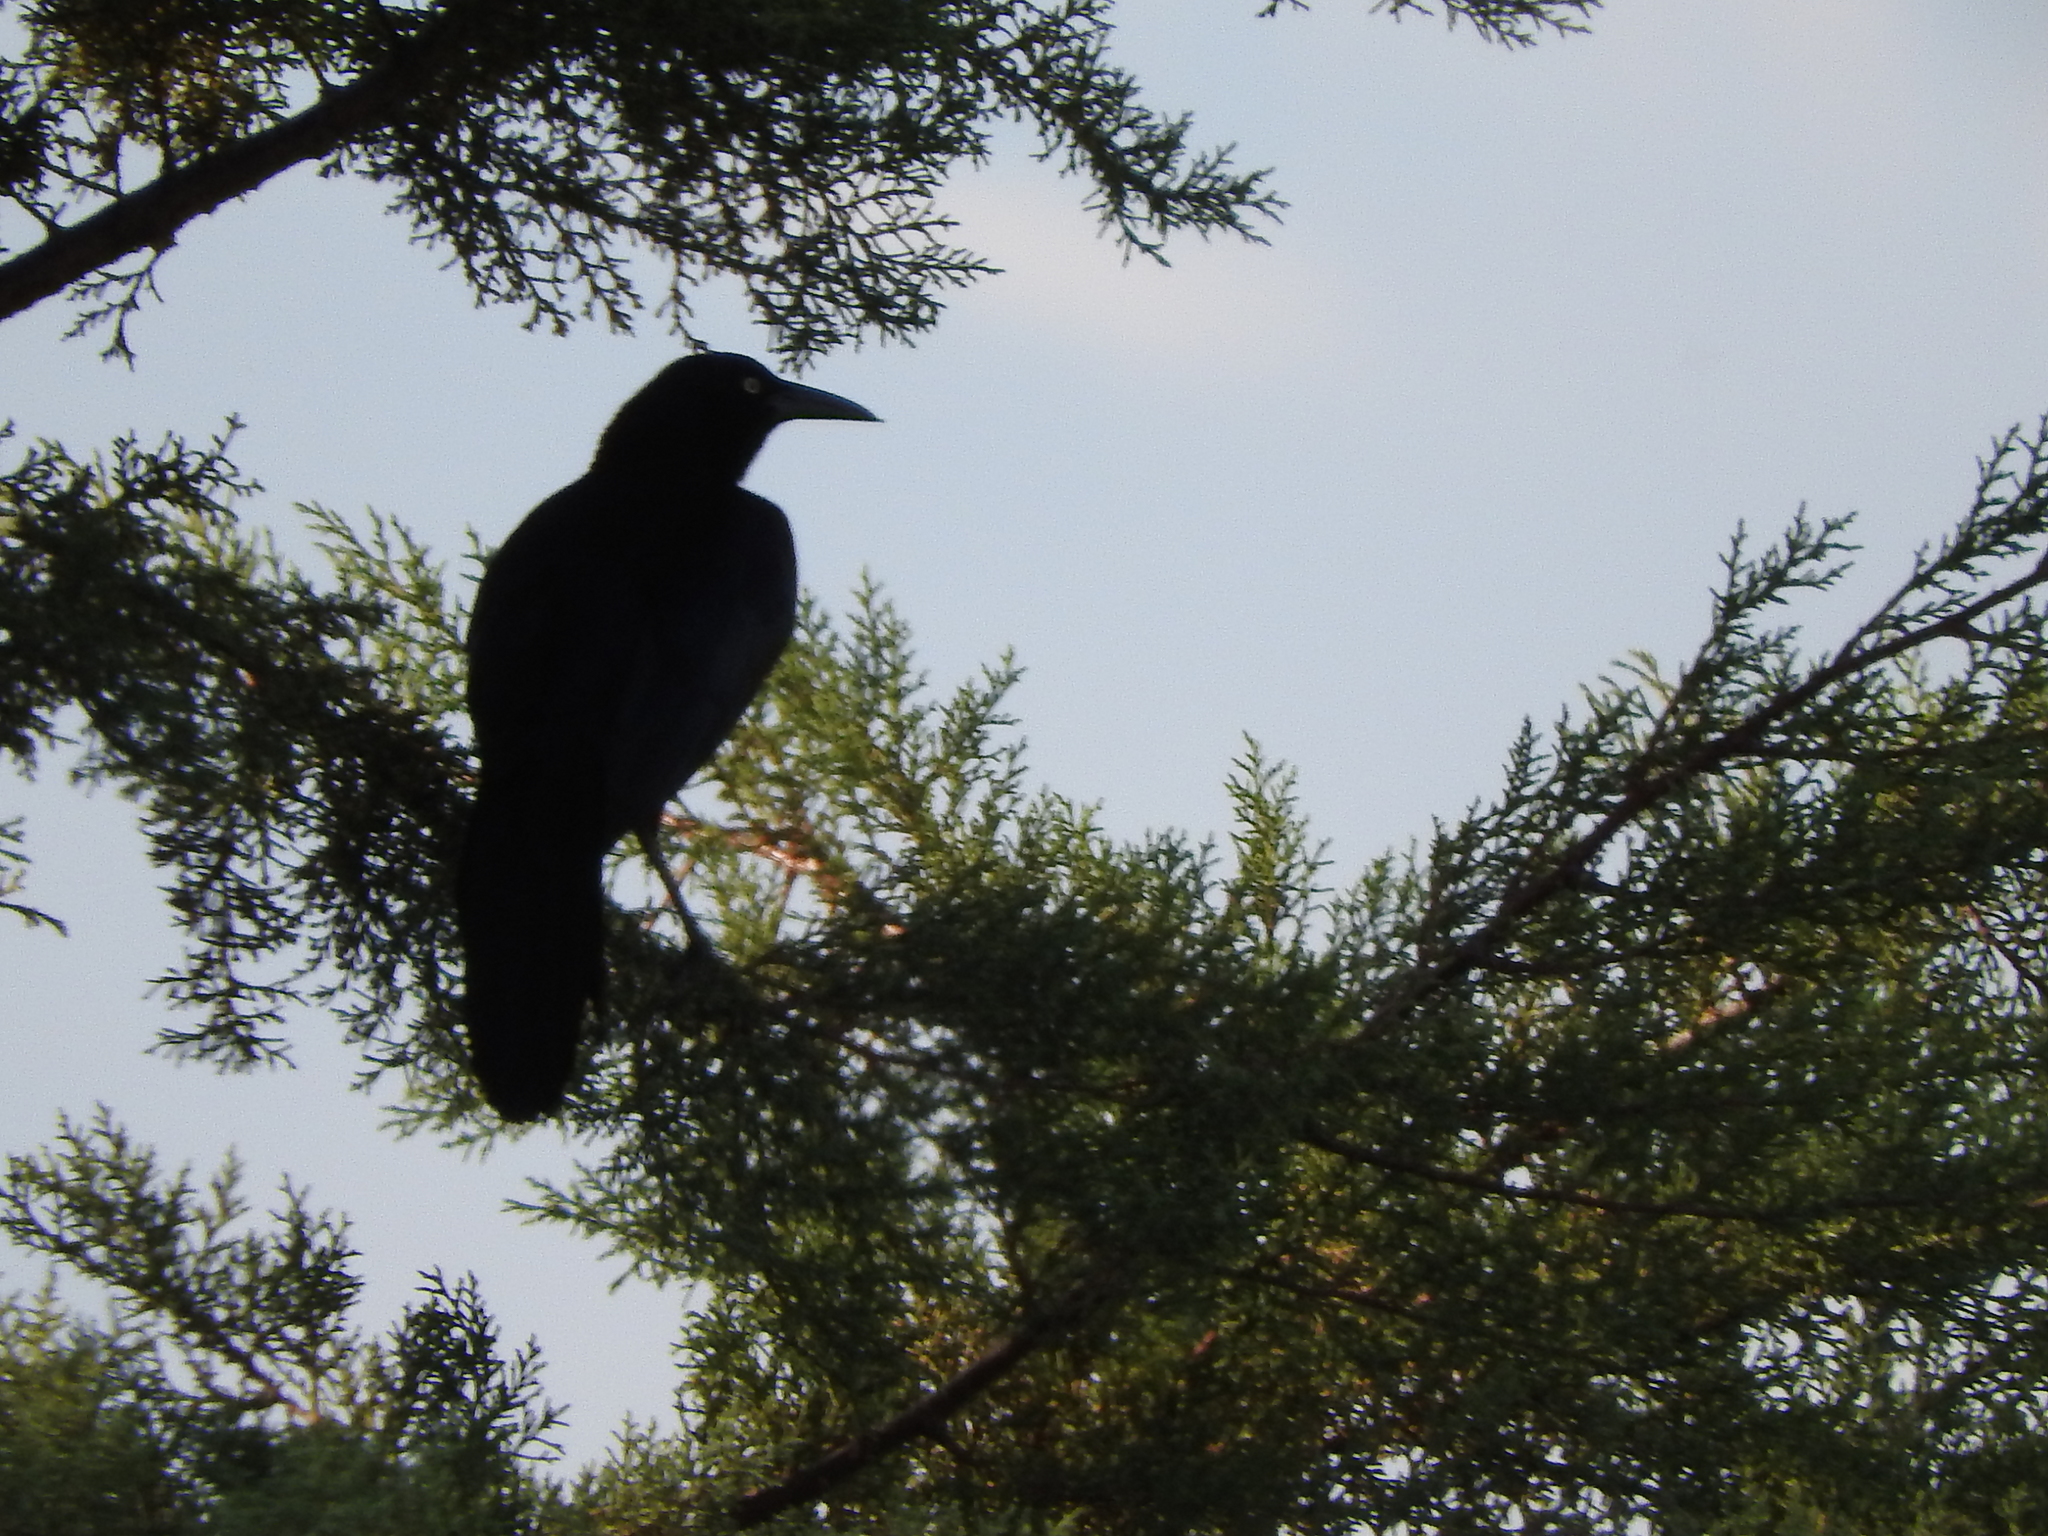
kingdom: Animalia
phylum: Chordata
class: Aves
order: Passeriformes
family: Icteridae
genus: Quiscalus
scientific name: Quiscalus mexicanus
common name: Great-tailed grackle
